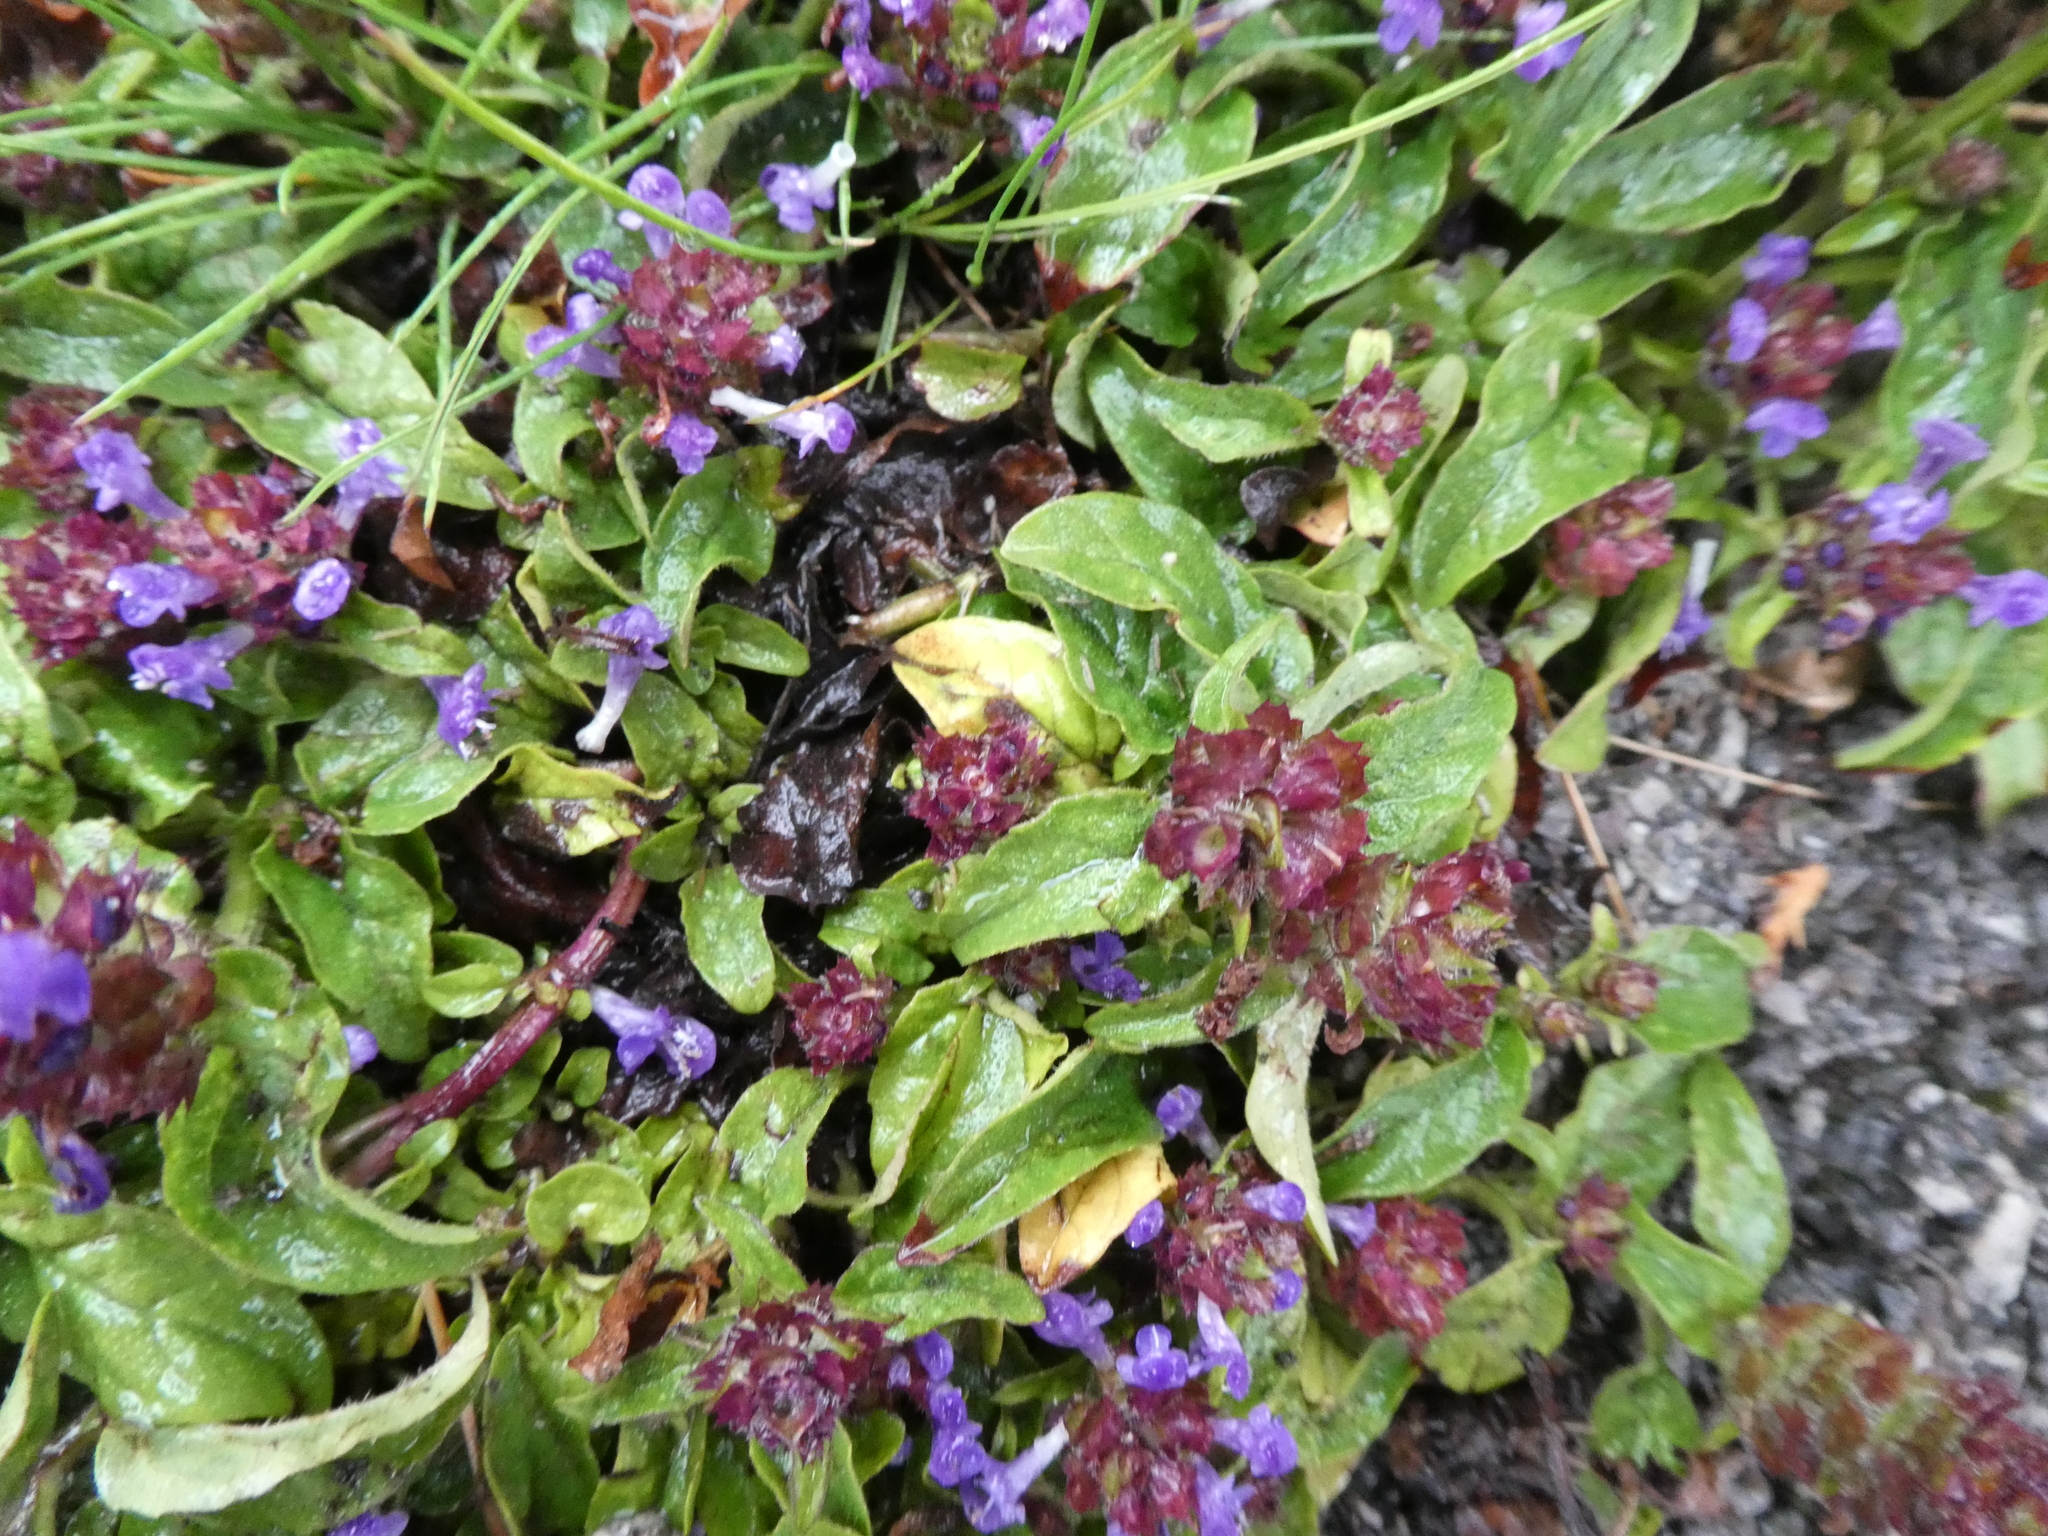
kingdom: Plantae
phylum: Tracheophyta
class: Magnoliopsida
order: Lamiales
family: Lamiaceae
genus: Prunella
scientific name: Prunella vulgaris
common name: Heal-all
